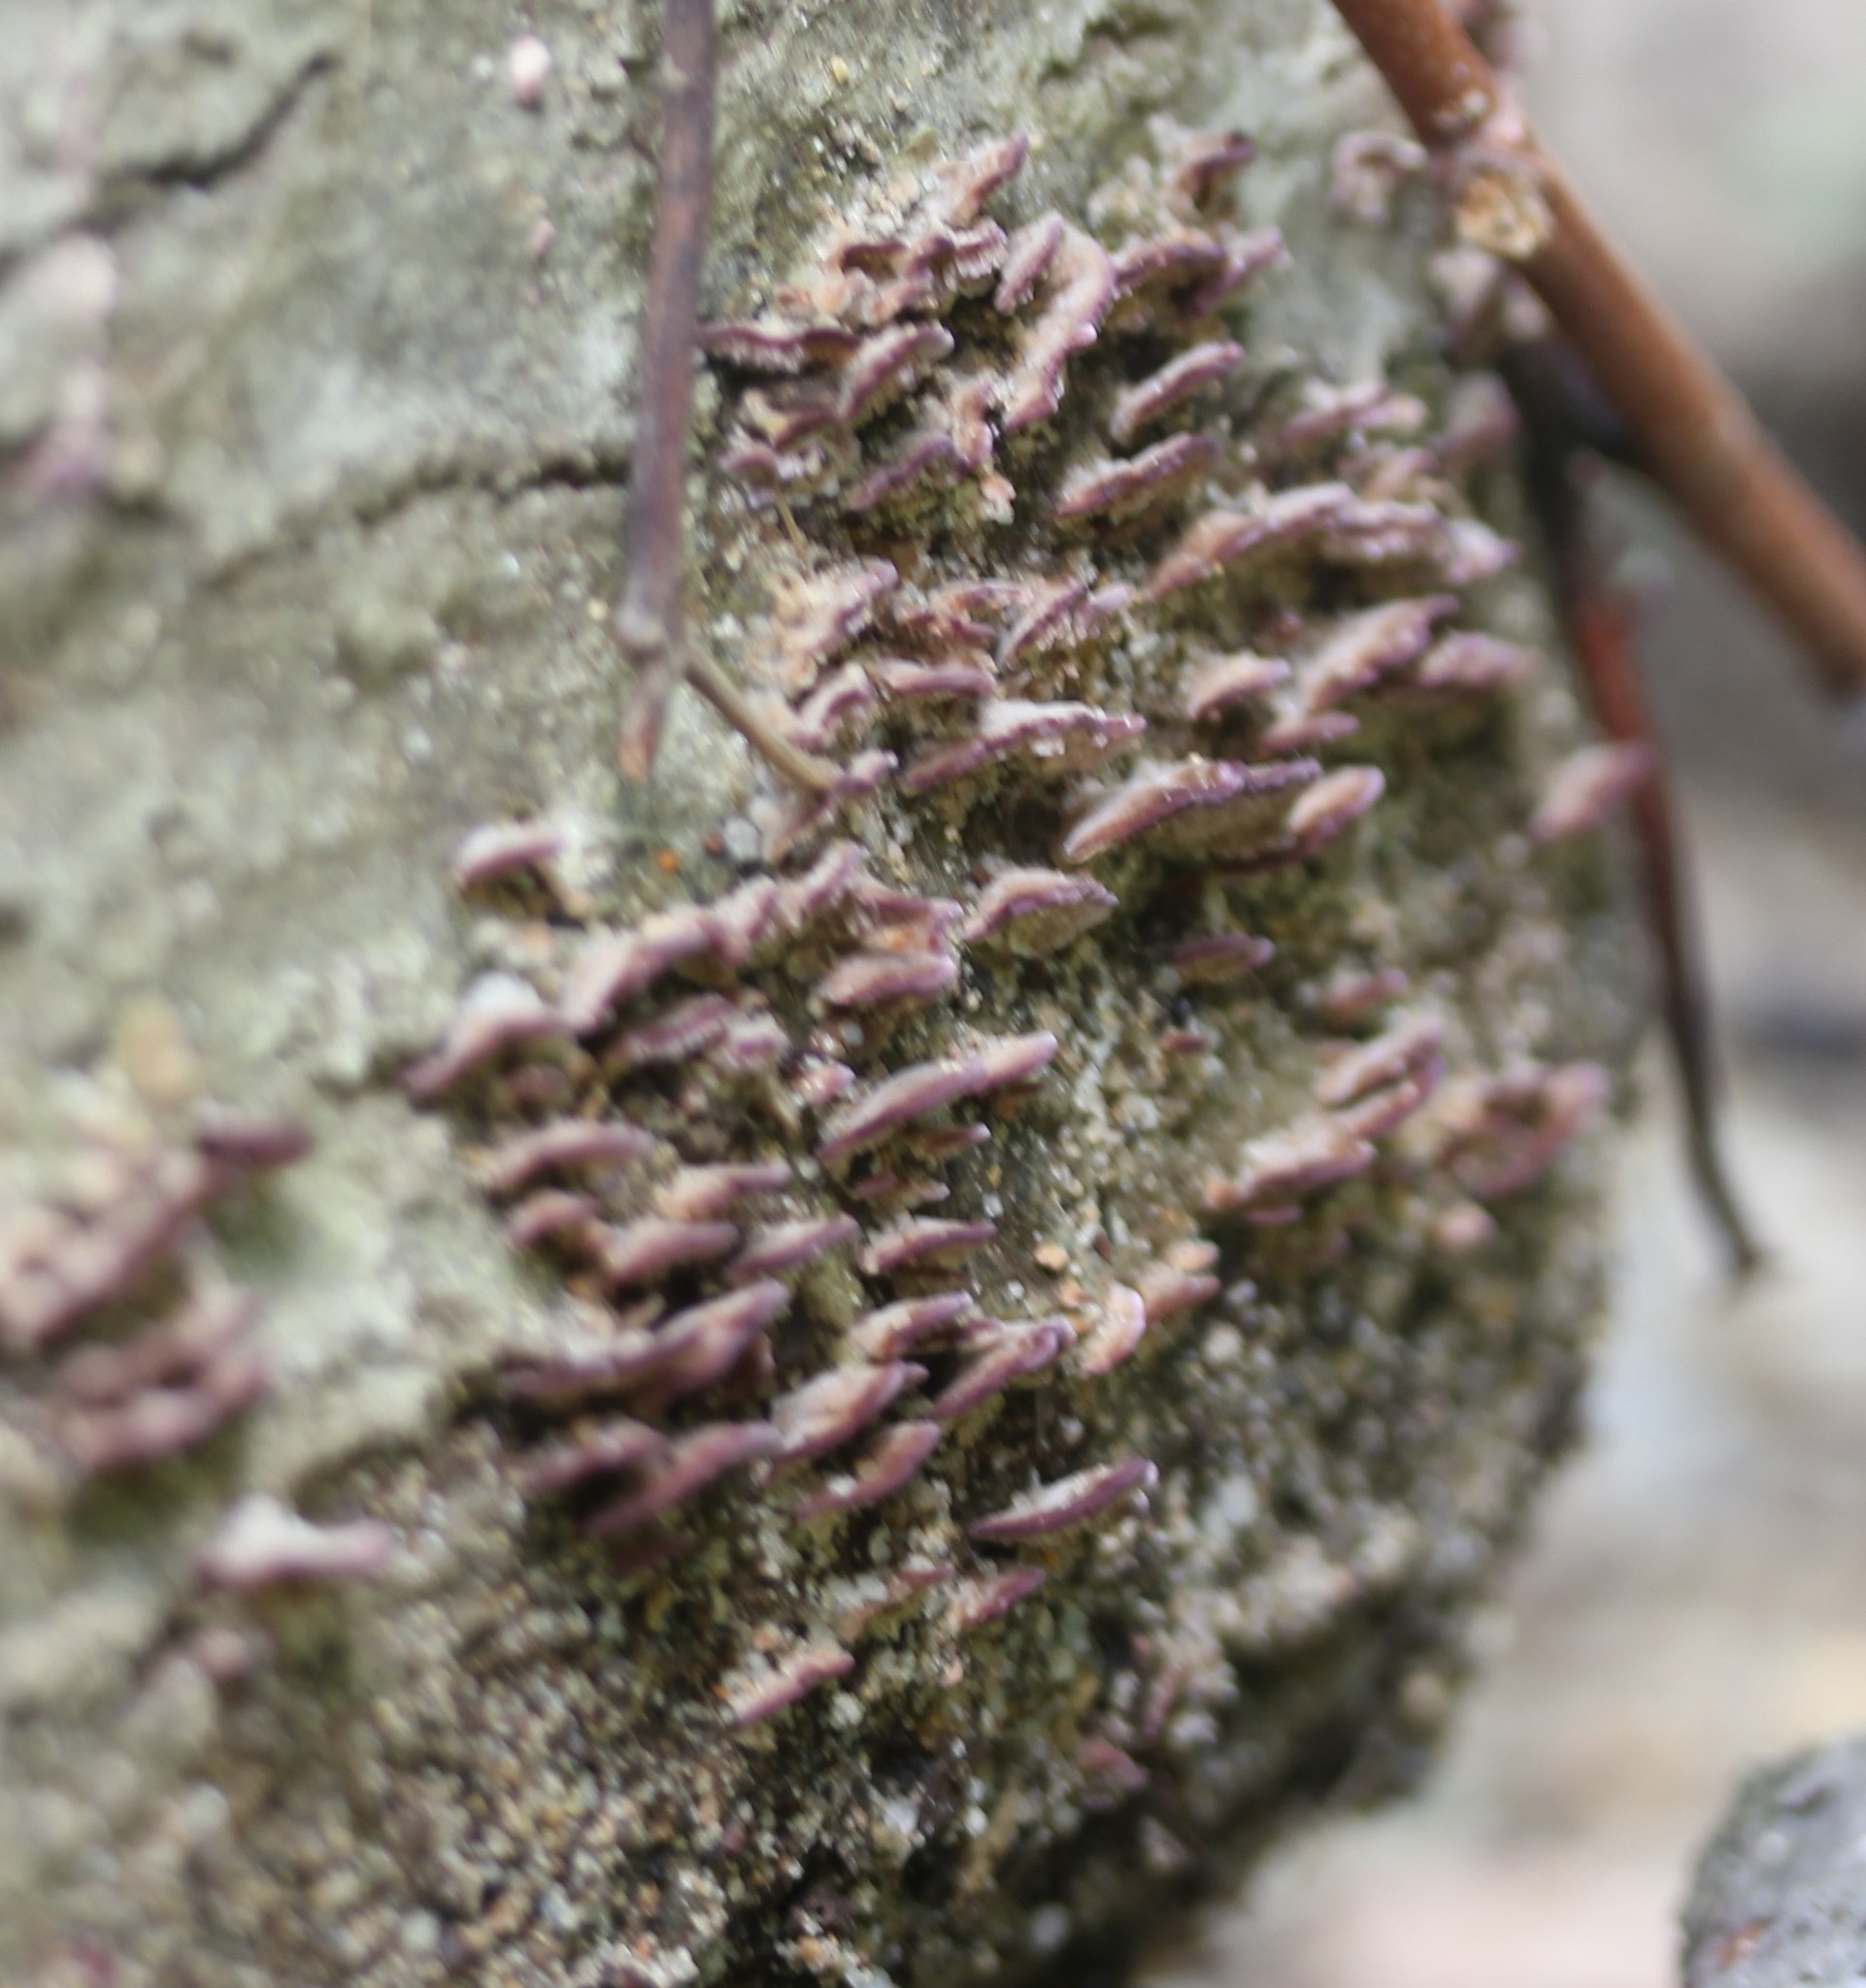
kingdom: Fungi
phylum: Basidiomycota
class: Agaricomycetes
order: Hymenochaetales
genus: Trichaptum
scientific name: Trichaptum biforme
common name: Violet-toothed polypore
